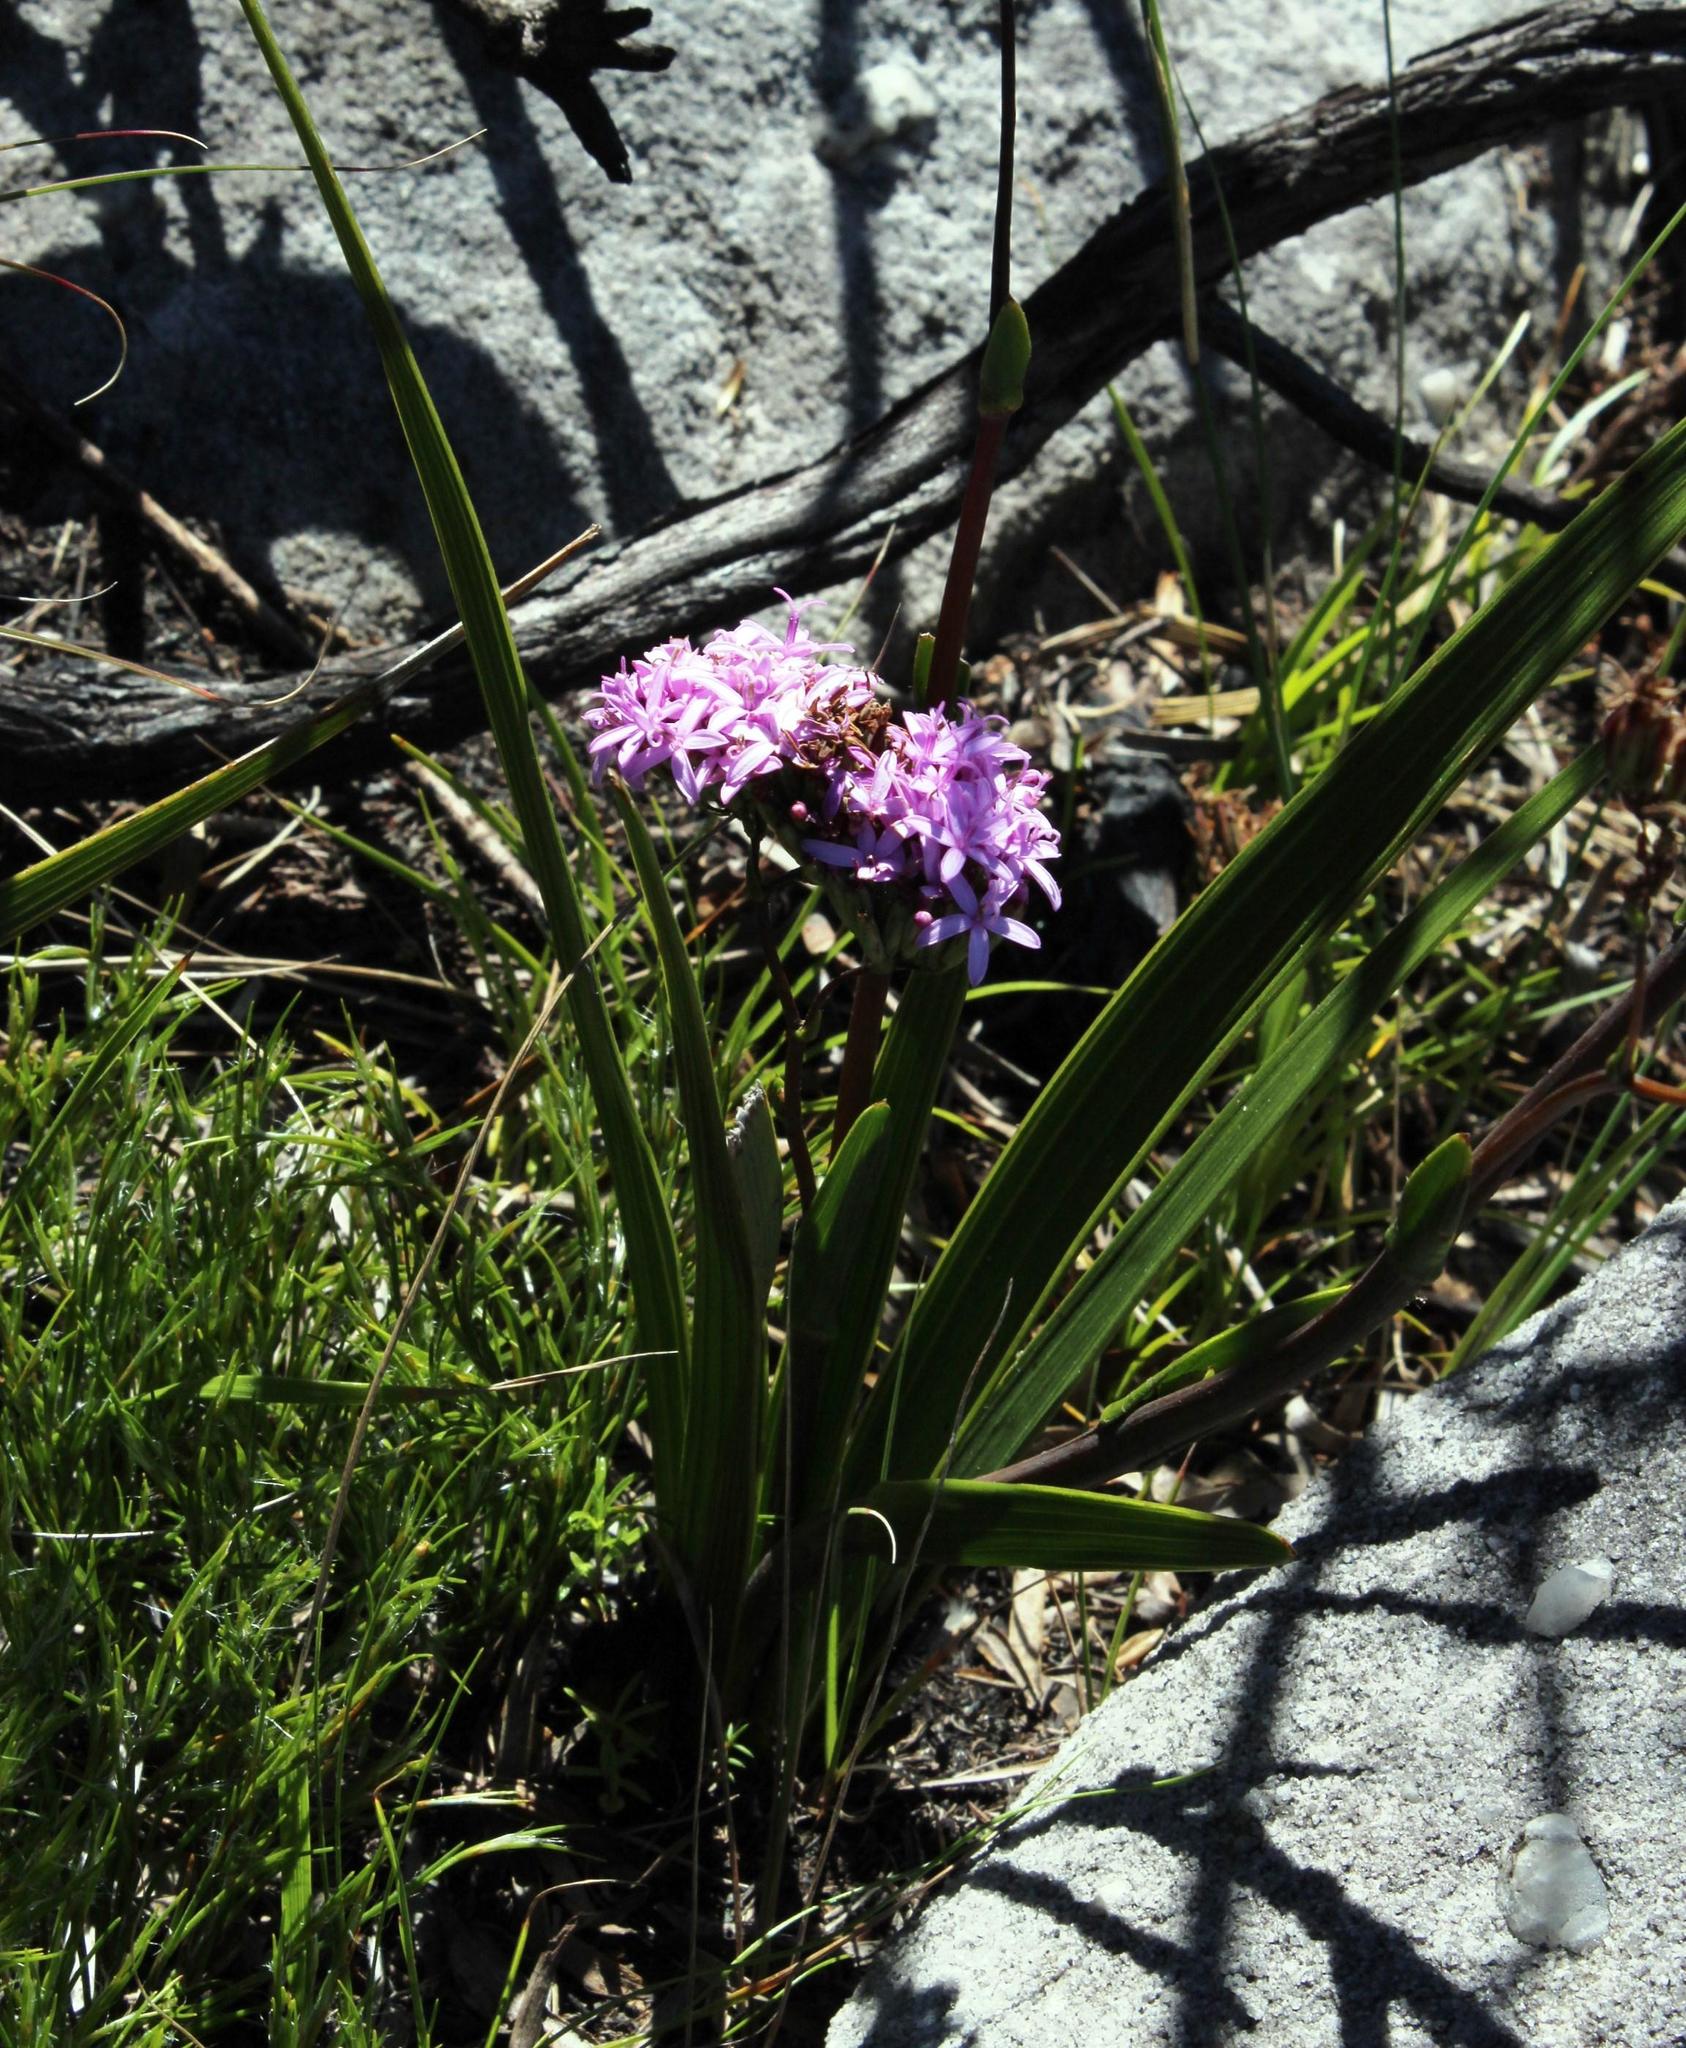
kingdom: Plantae
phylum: Tracheophyta
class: Magnoliopsida
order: Asterales
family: Asteraceae
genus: Corymbium
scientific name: Corymbium glabrum
